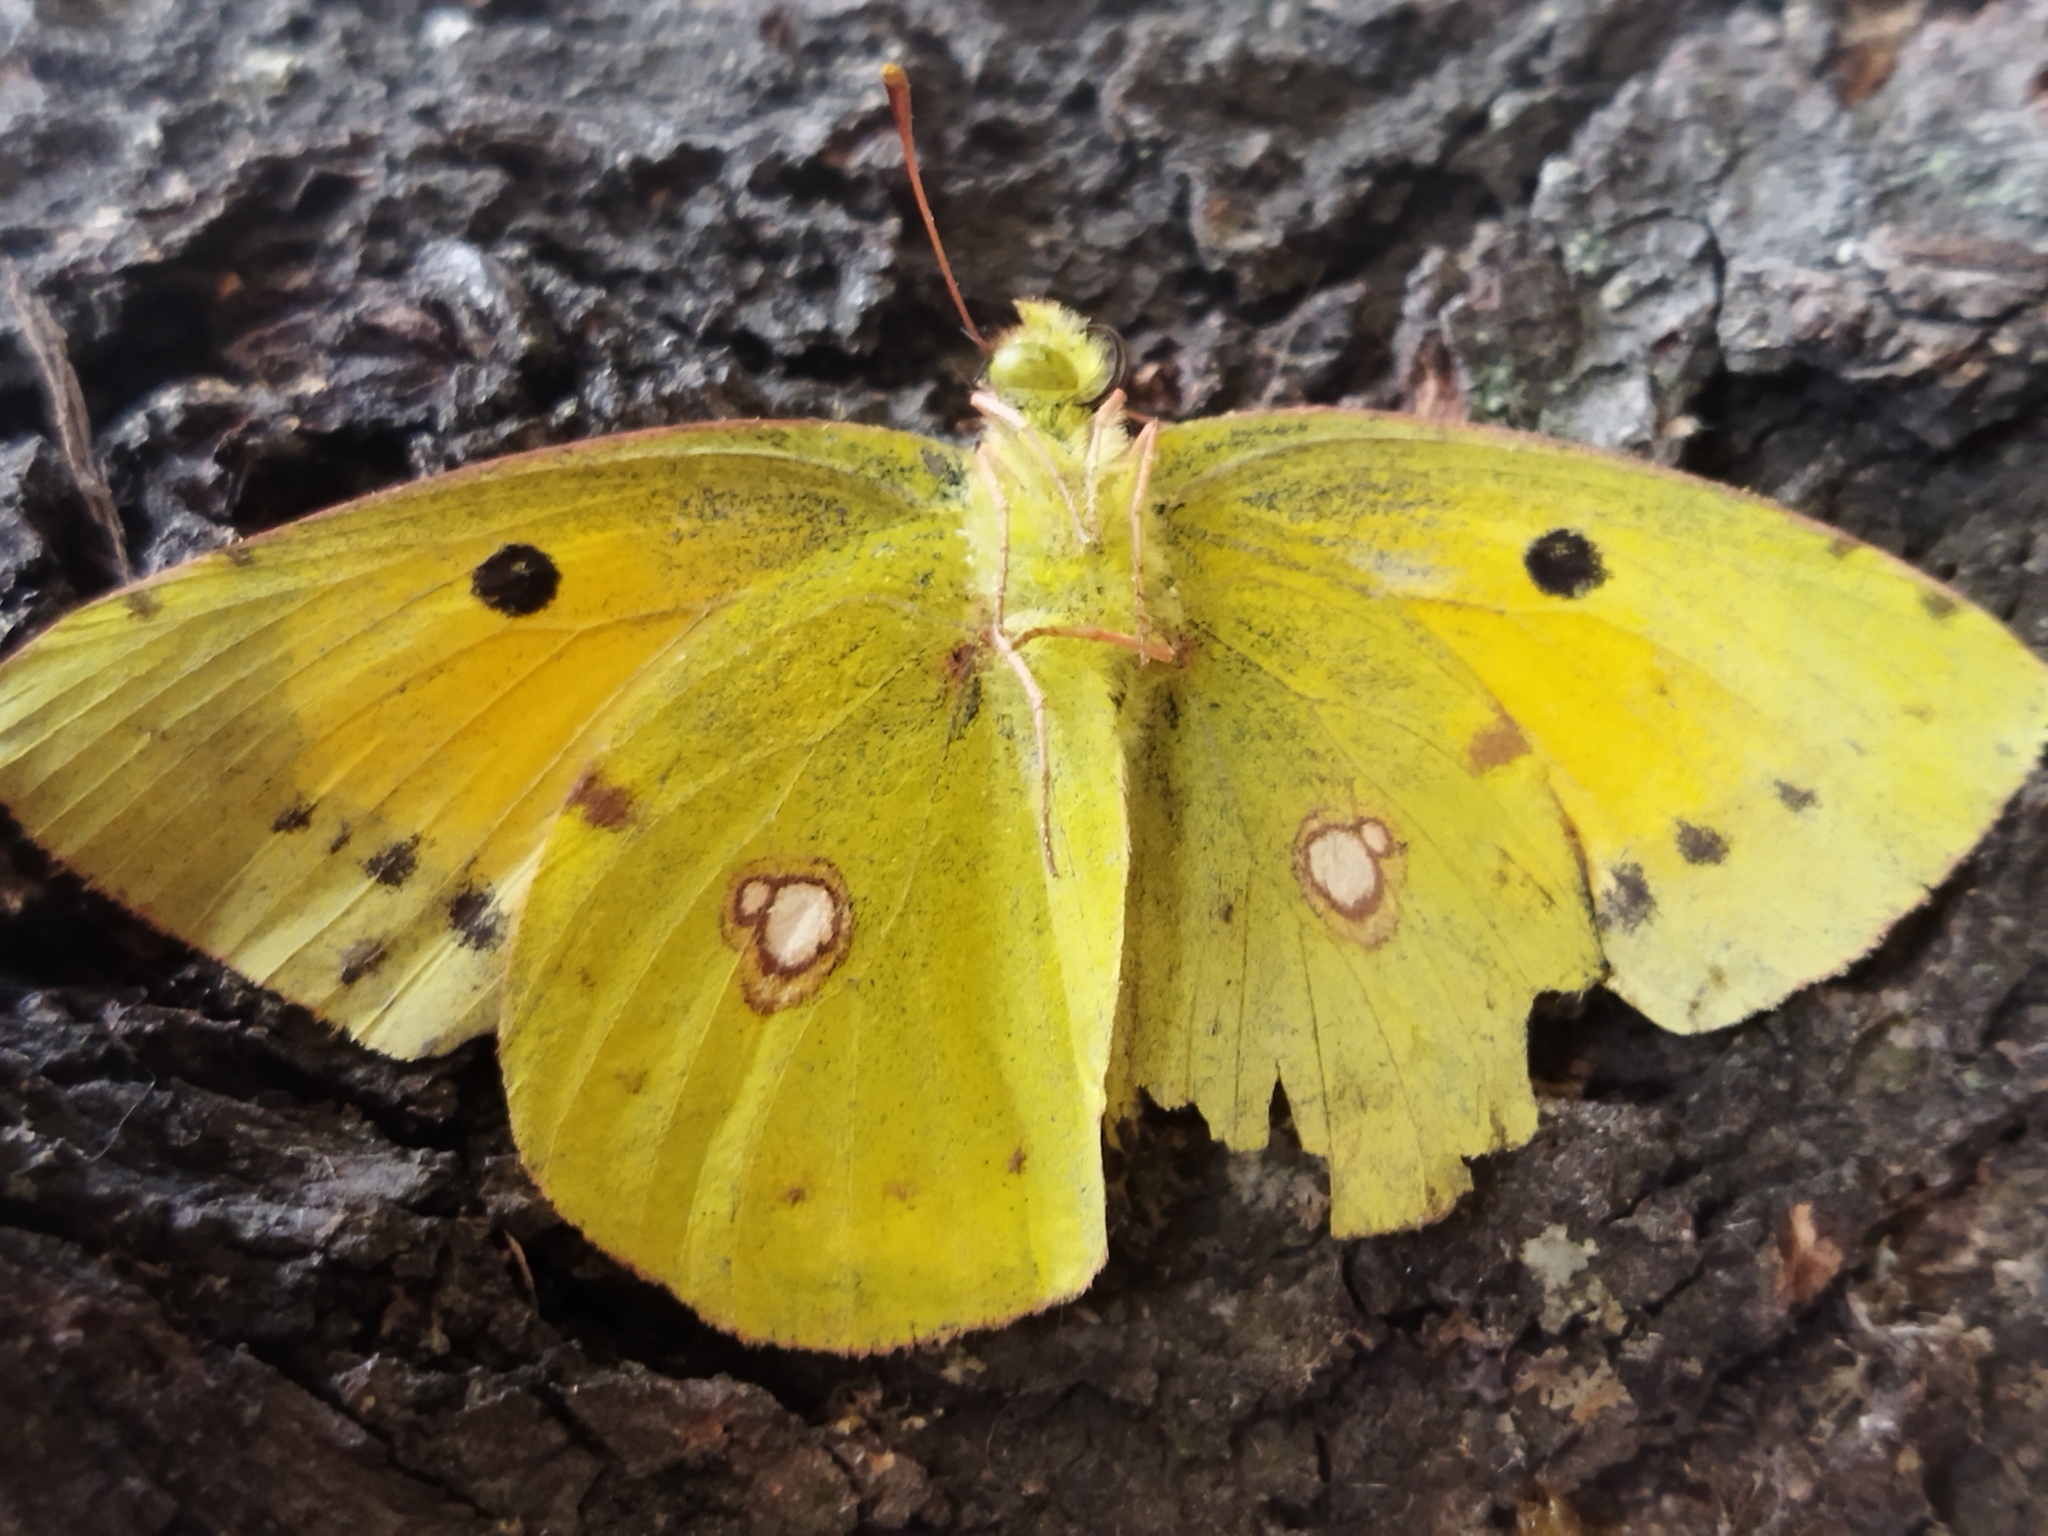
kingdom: Animalia
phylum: Arthropoda
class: Insecta
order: Lepidoptera
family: Pieridae
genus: Colias
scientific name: Colias croceus
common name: Clouded yellow
